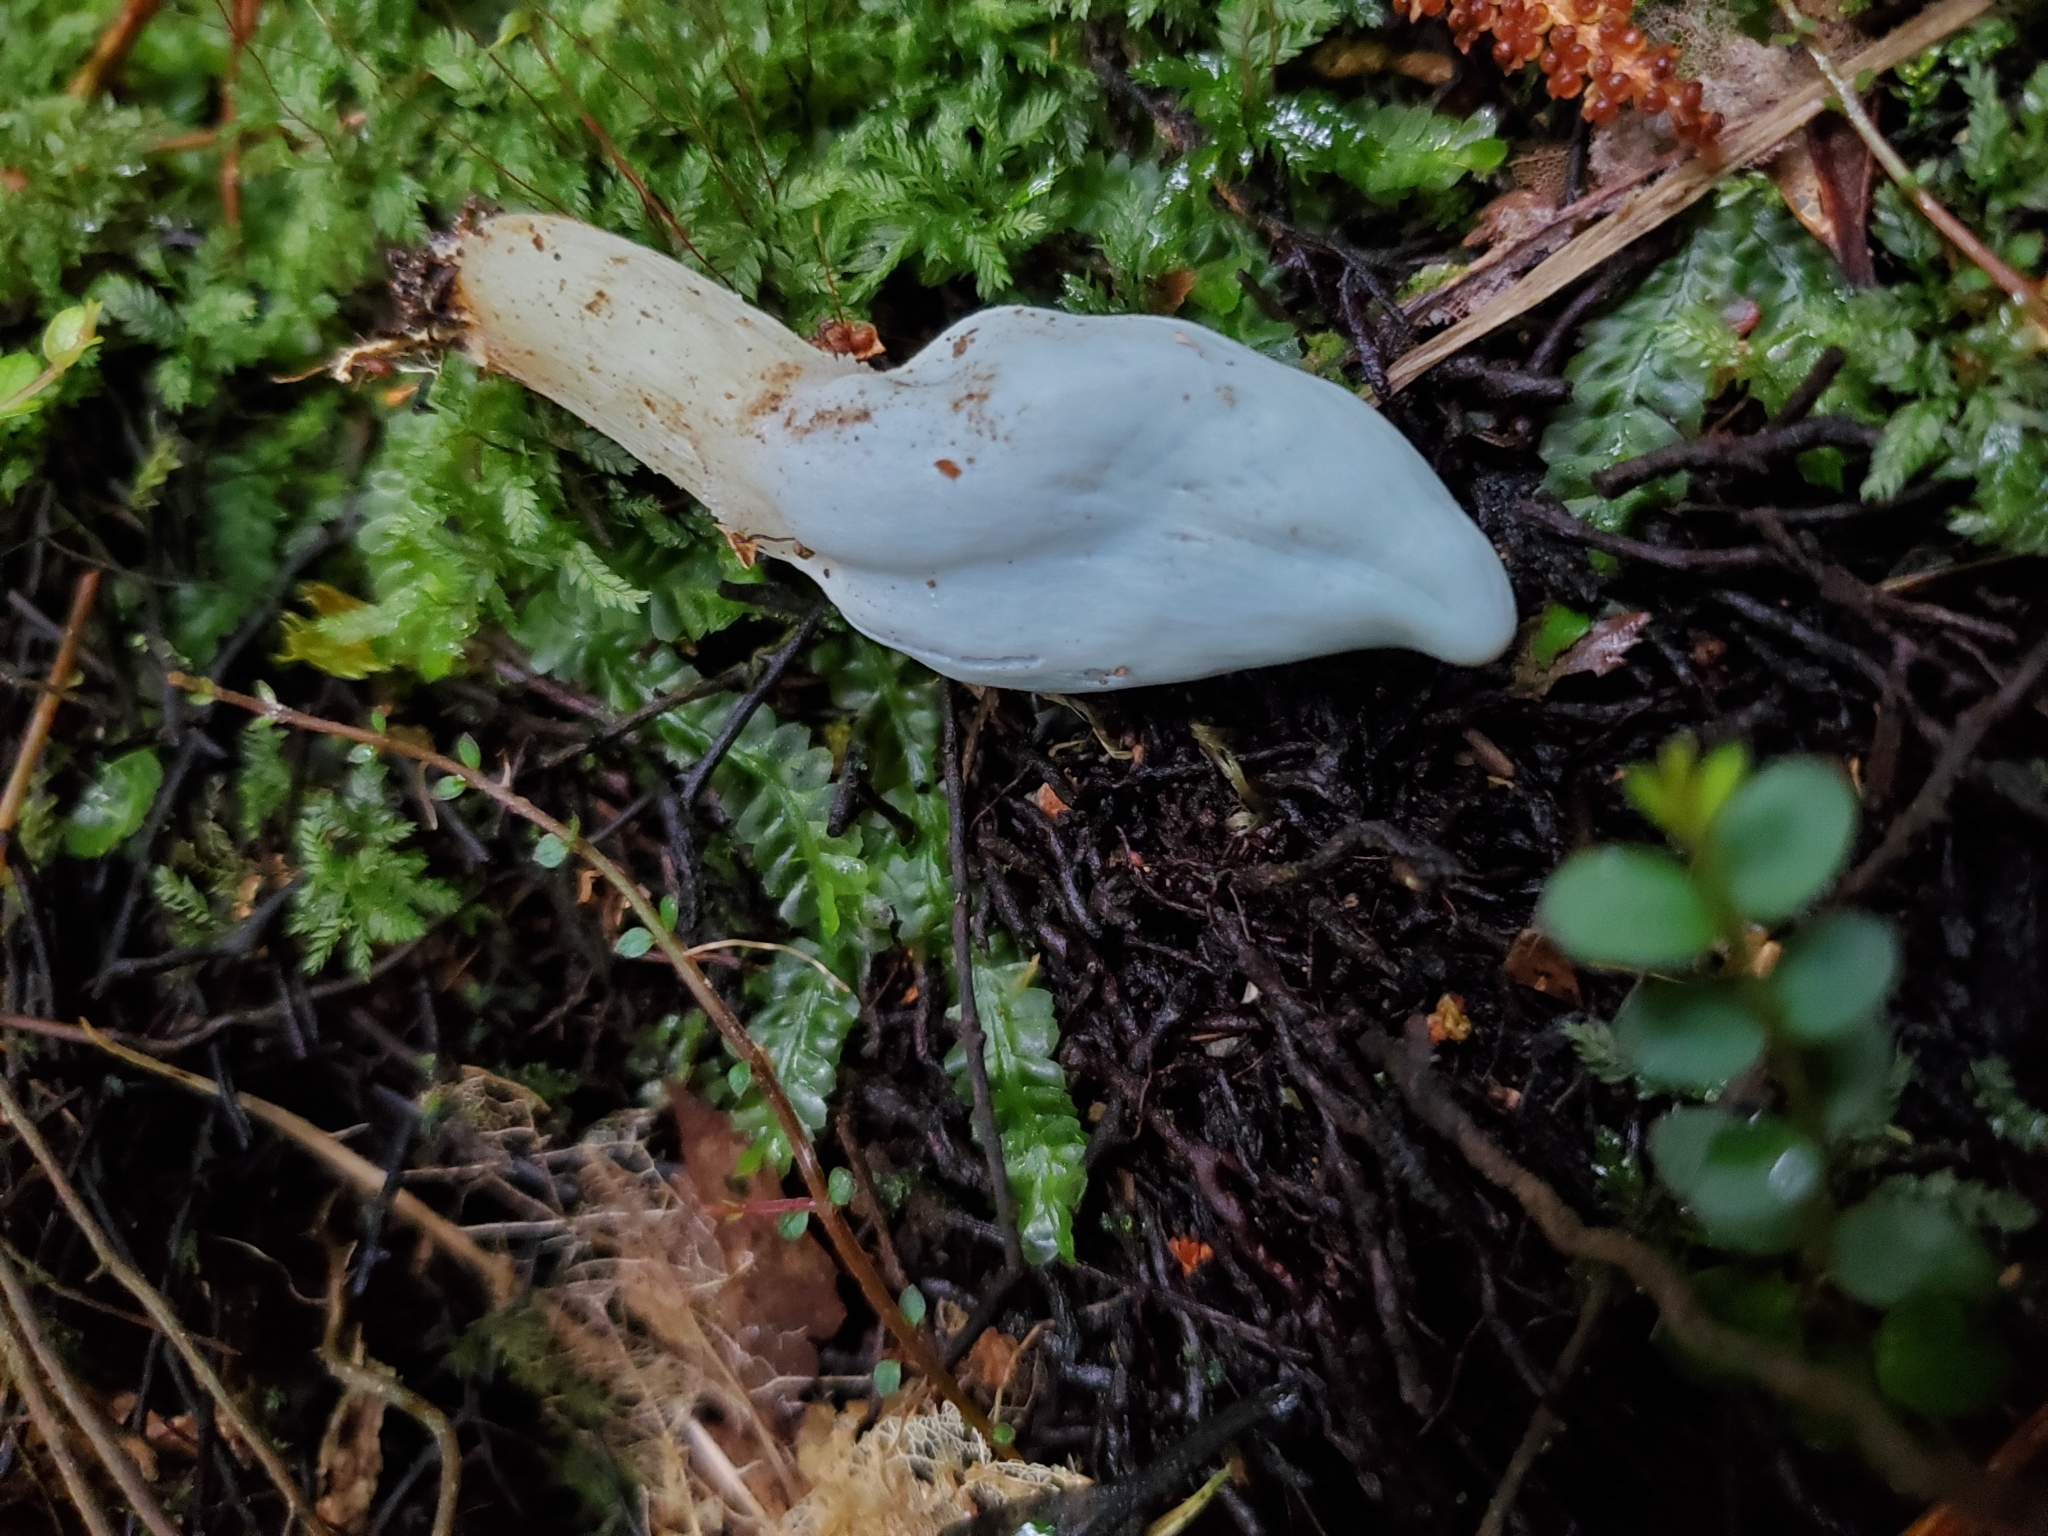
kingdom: Fungi
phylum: Basidiomycota
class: Agaricomycetes
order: Agaricales
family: Agaricaceae
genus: Clavogaster
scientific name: Clavogaster virescens
